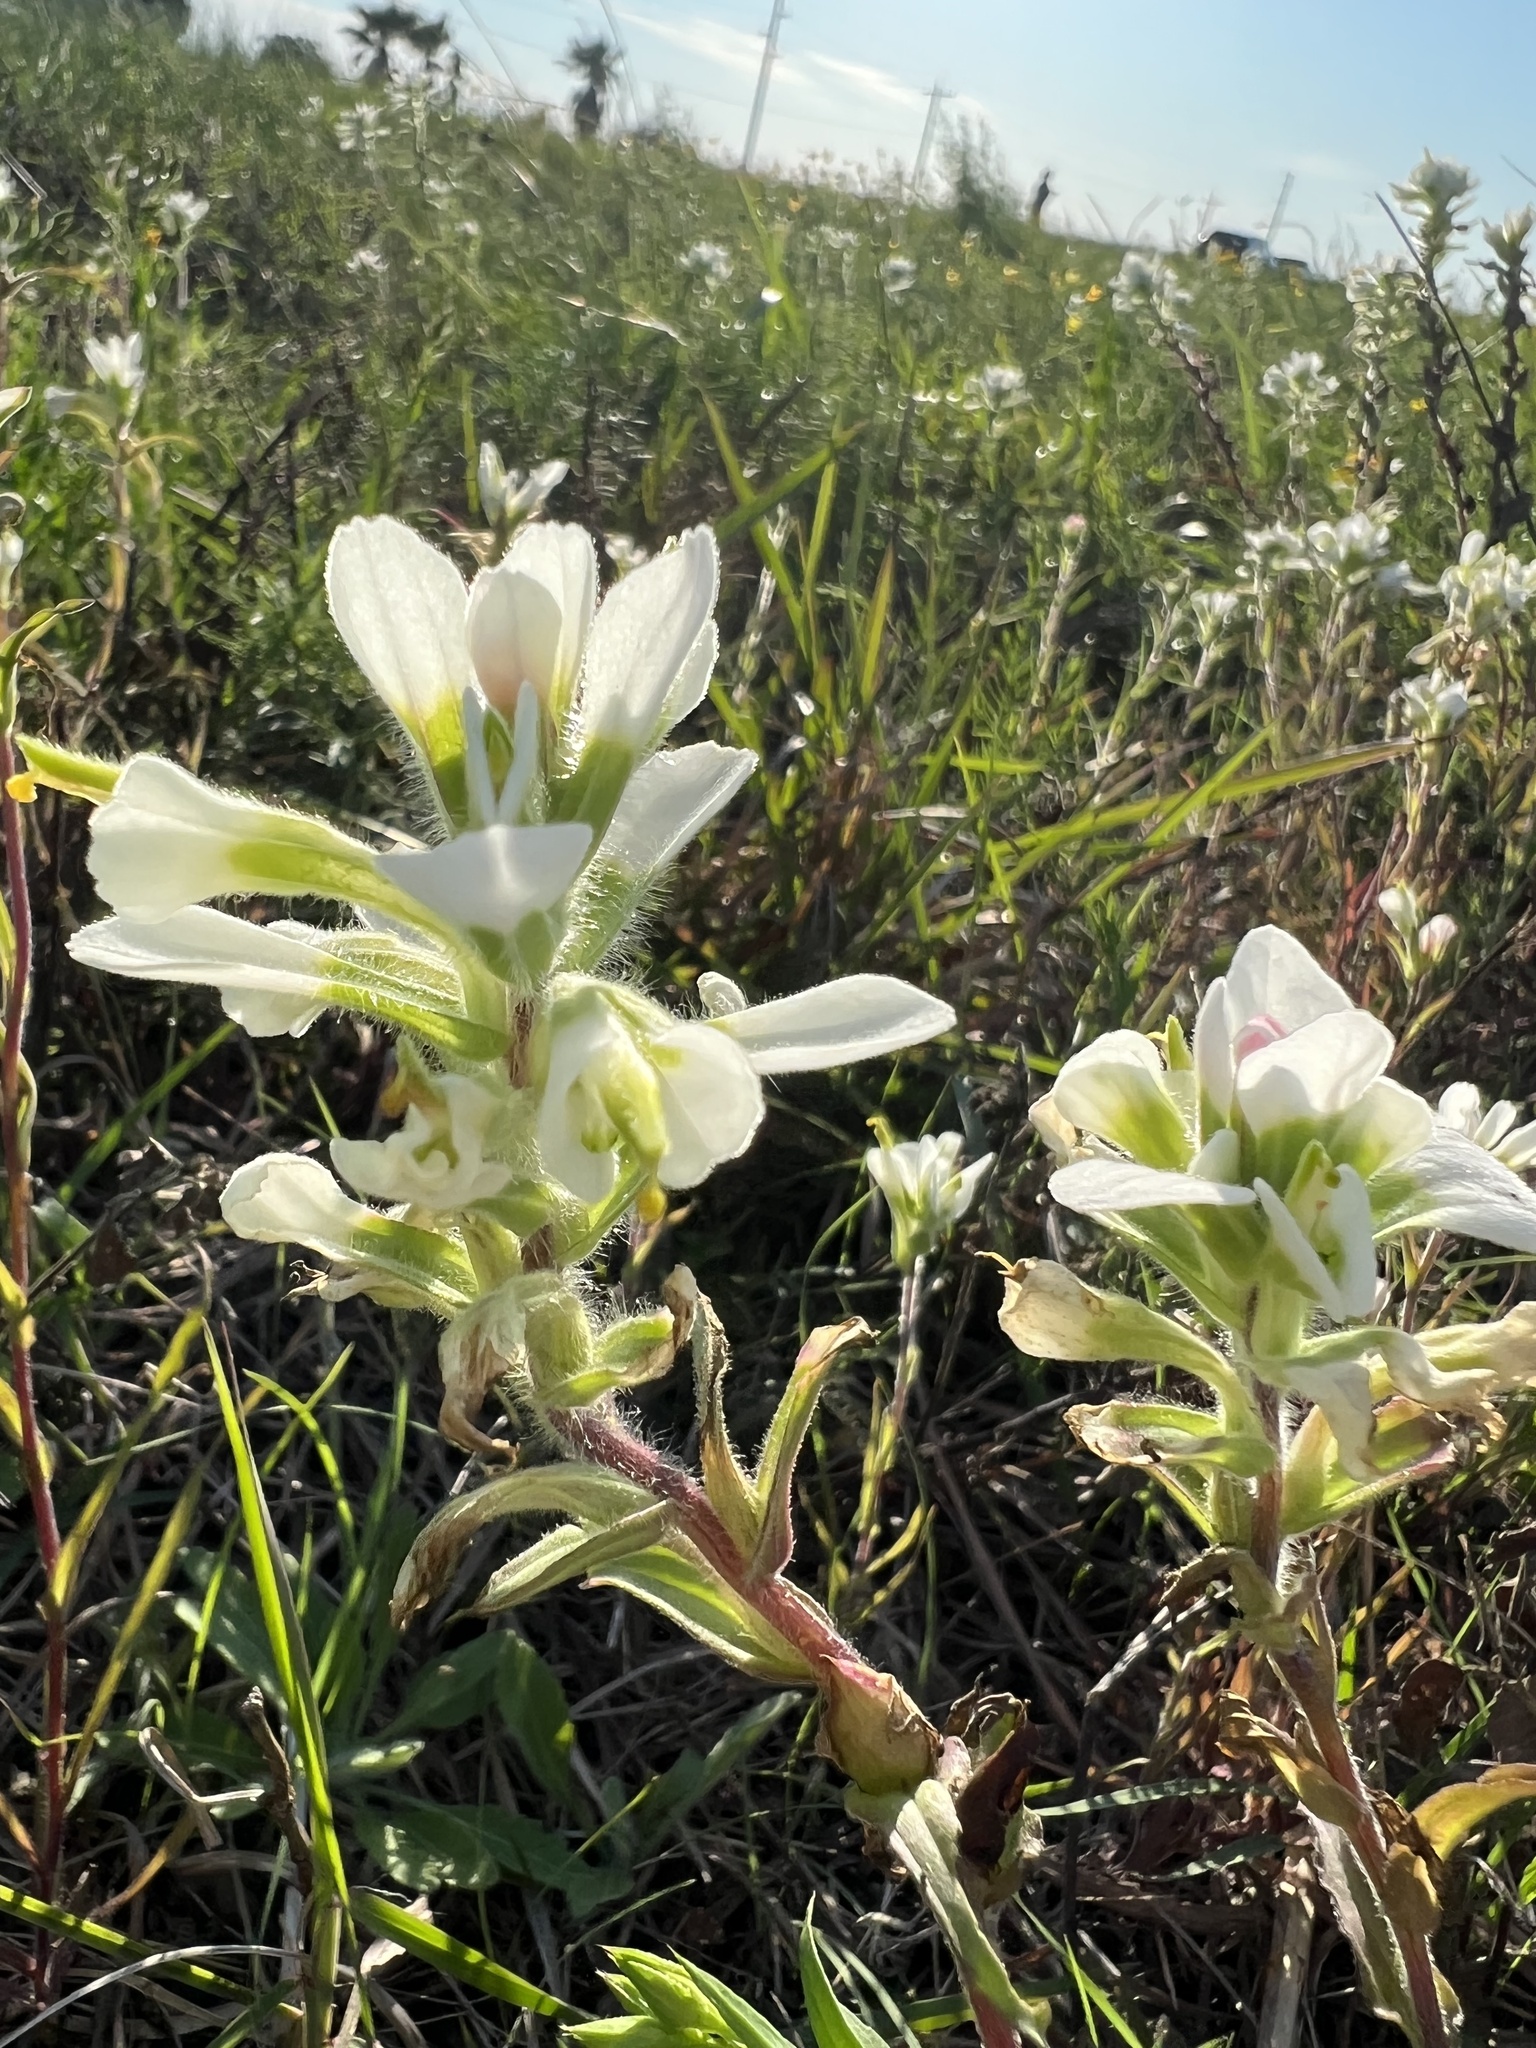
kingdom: Plantae
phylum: Tracheophyta
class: Magnoliopsida
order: Lamiales
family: Orobanchaceae
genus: Castilleja
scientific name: Castilleja halophila
